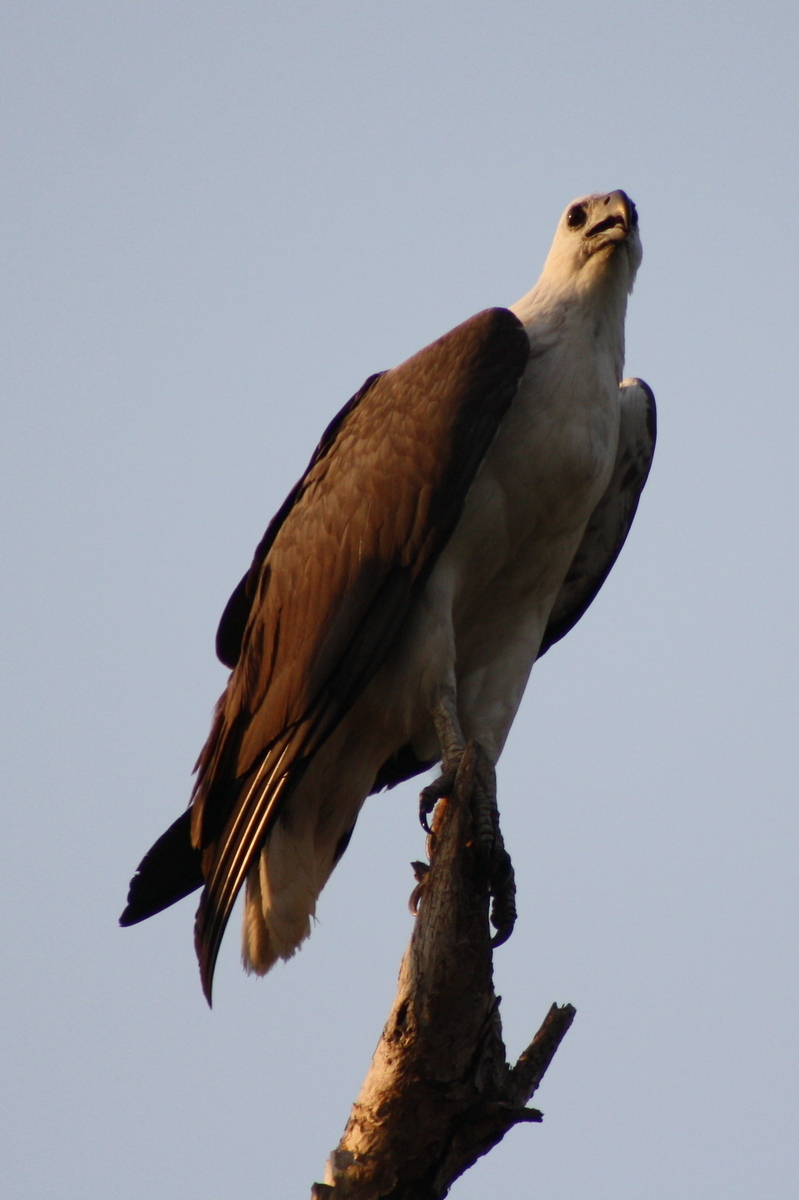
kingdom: Animalia
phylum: Chordata
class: Aves
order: Accipitriformes
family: Accipitridae
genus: Haliaeetus
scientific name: Haliaeetus leucogaster
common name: White-bellied sea eagle
